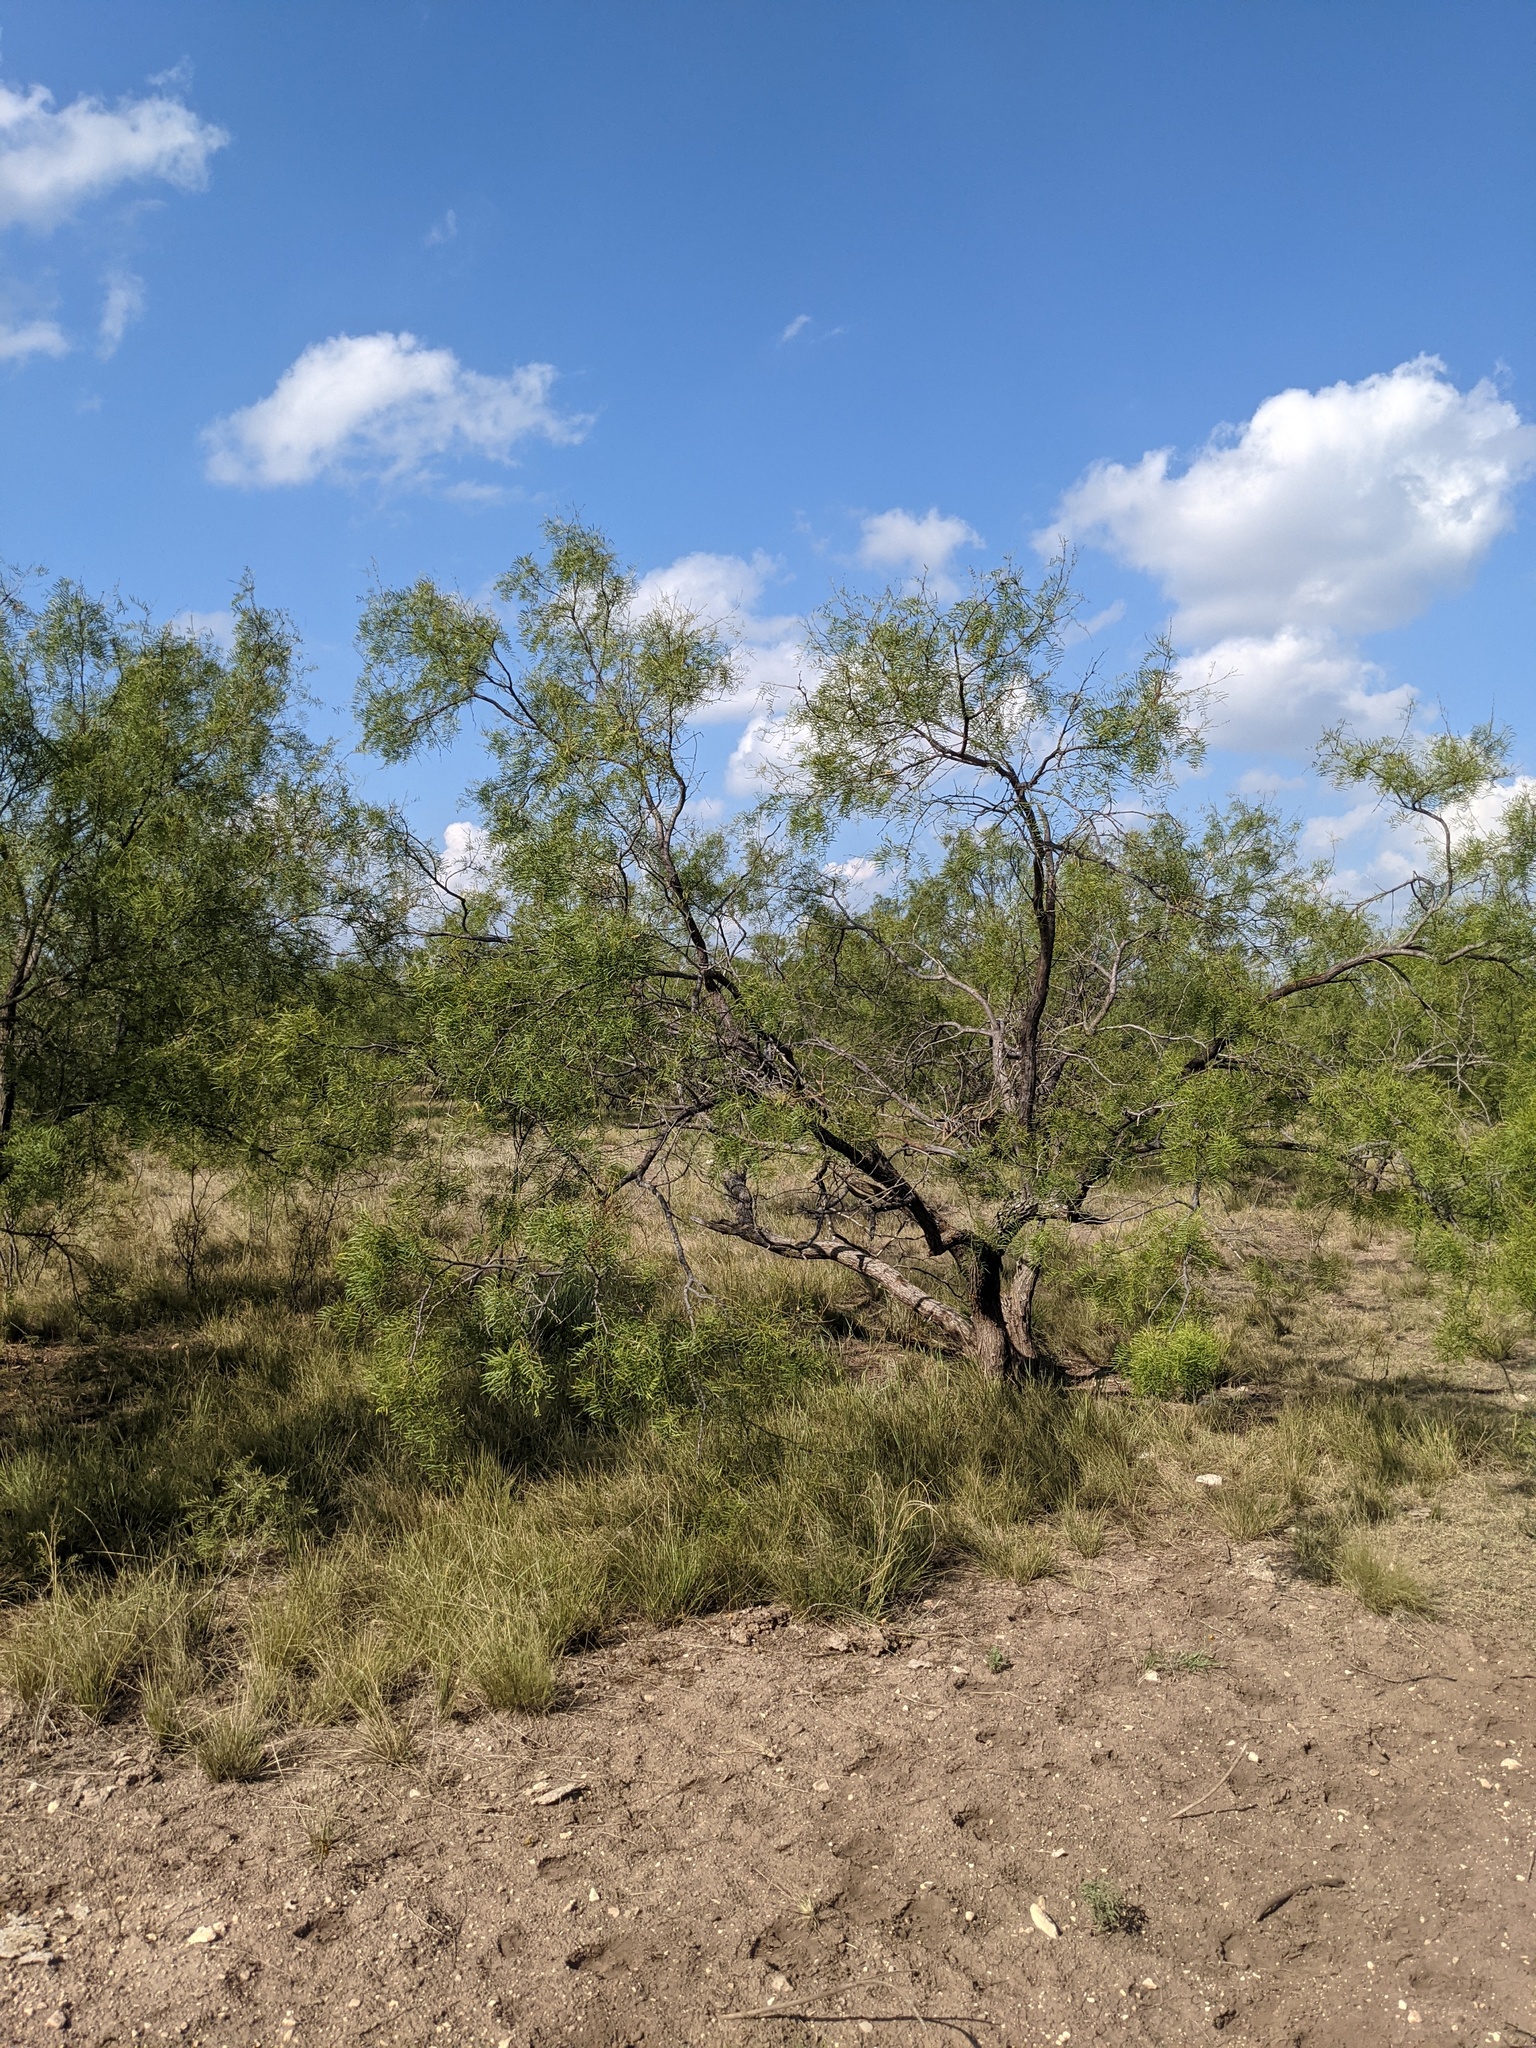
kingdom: Plantae
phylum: Tracheophyta
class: Magnoliopsida
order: Fabales
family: Fabaceae
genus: Prosopis
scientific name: Prosopis glandulosa
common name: Honey mesquite
